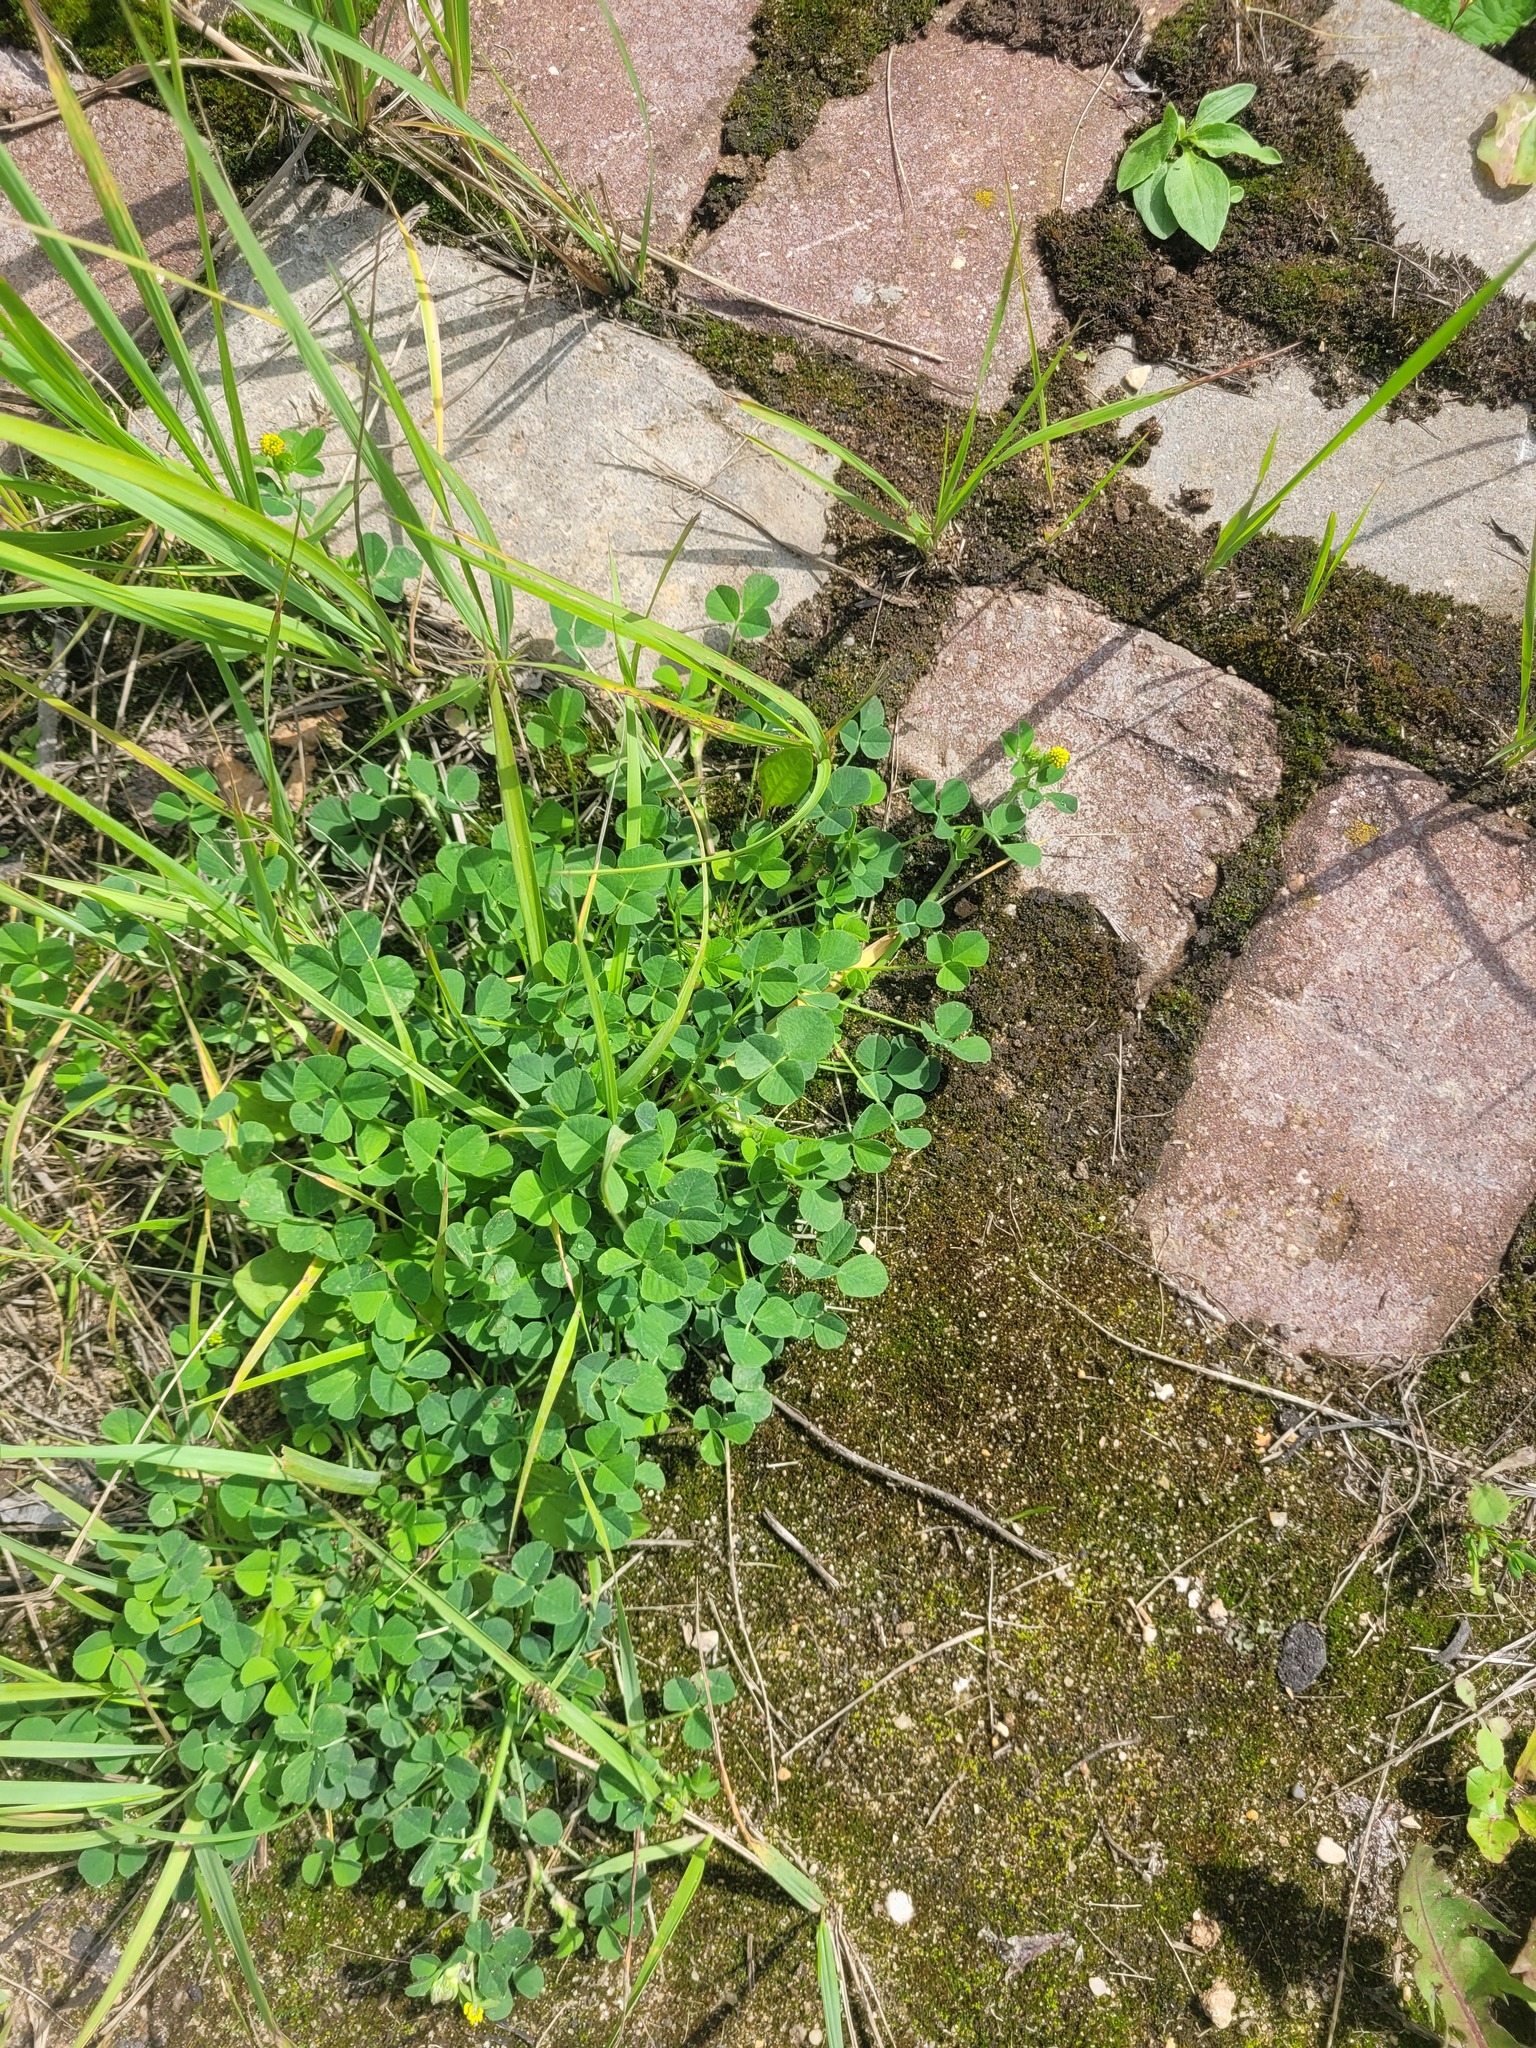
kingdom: Plantae
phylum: Tracheophyta
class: Magnoliopsida
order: Fabales
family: Fabaceae
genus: Medicago
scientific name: Medicago lupulina
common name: Black medick
